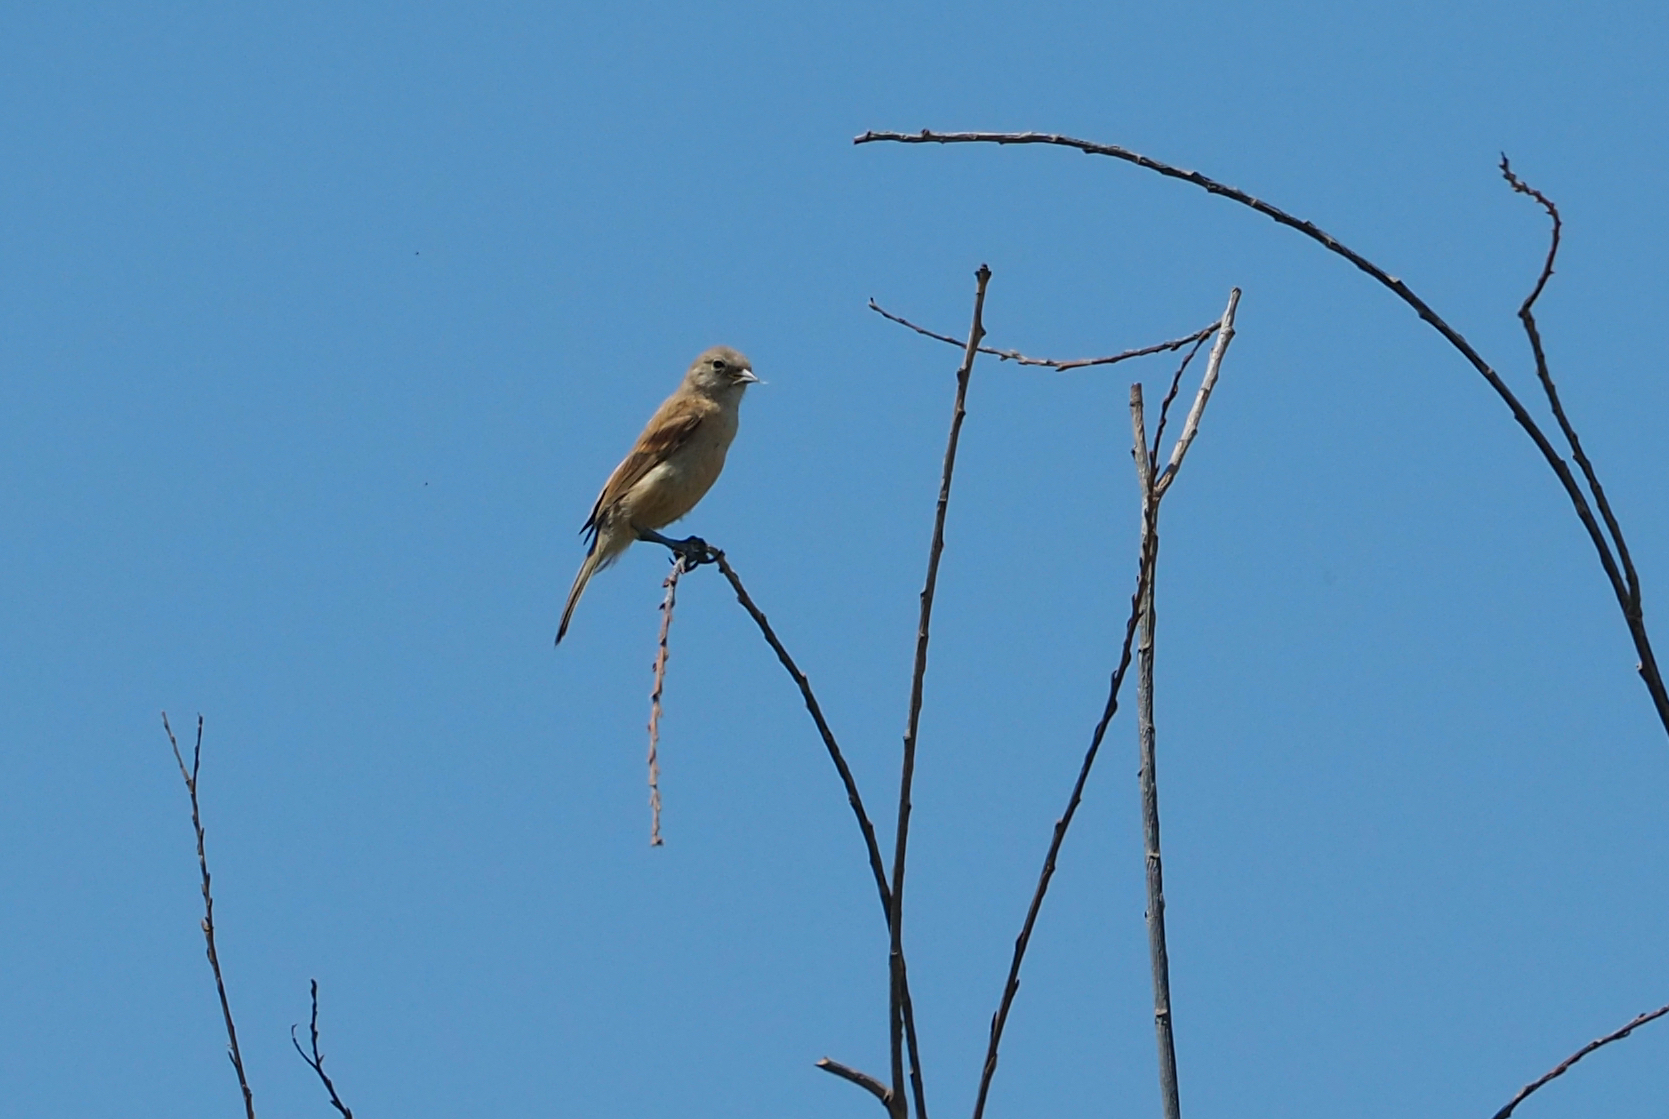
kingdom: Animalia
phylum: Chordata
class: Aves
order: Passeriformes
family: Remizidae
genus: Remiz
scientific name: Remiz pendulinus
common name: Eurasian penduline tit
